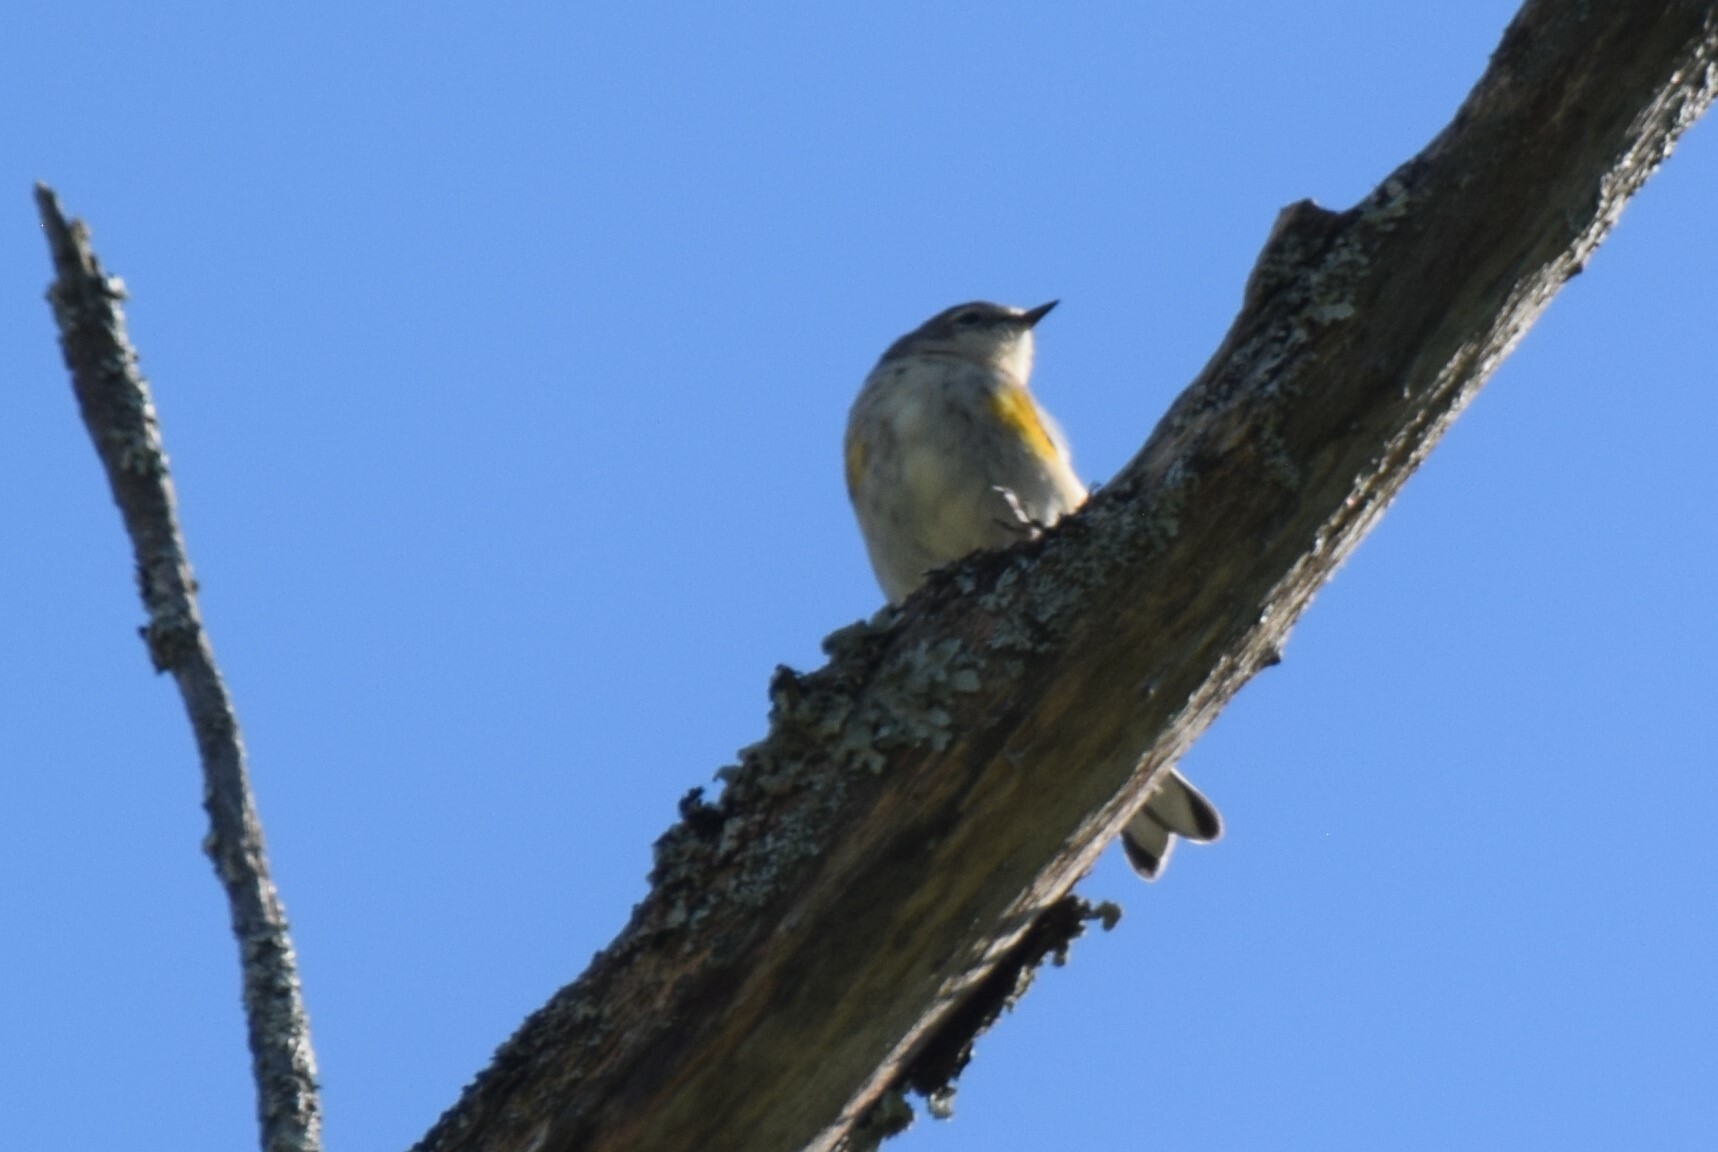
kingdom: Animalia
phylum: Chordata
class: Aves
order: Passeriformes
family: Parulidae
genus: Setophaga
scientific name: Setophaga coronata
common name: Myrtle warbler
